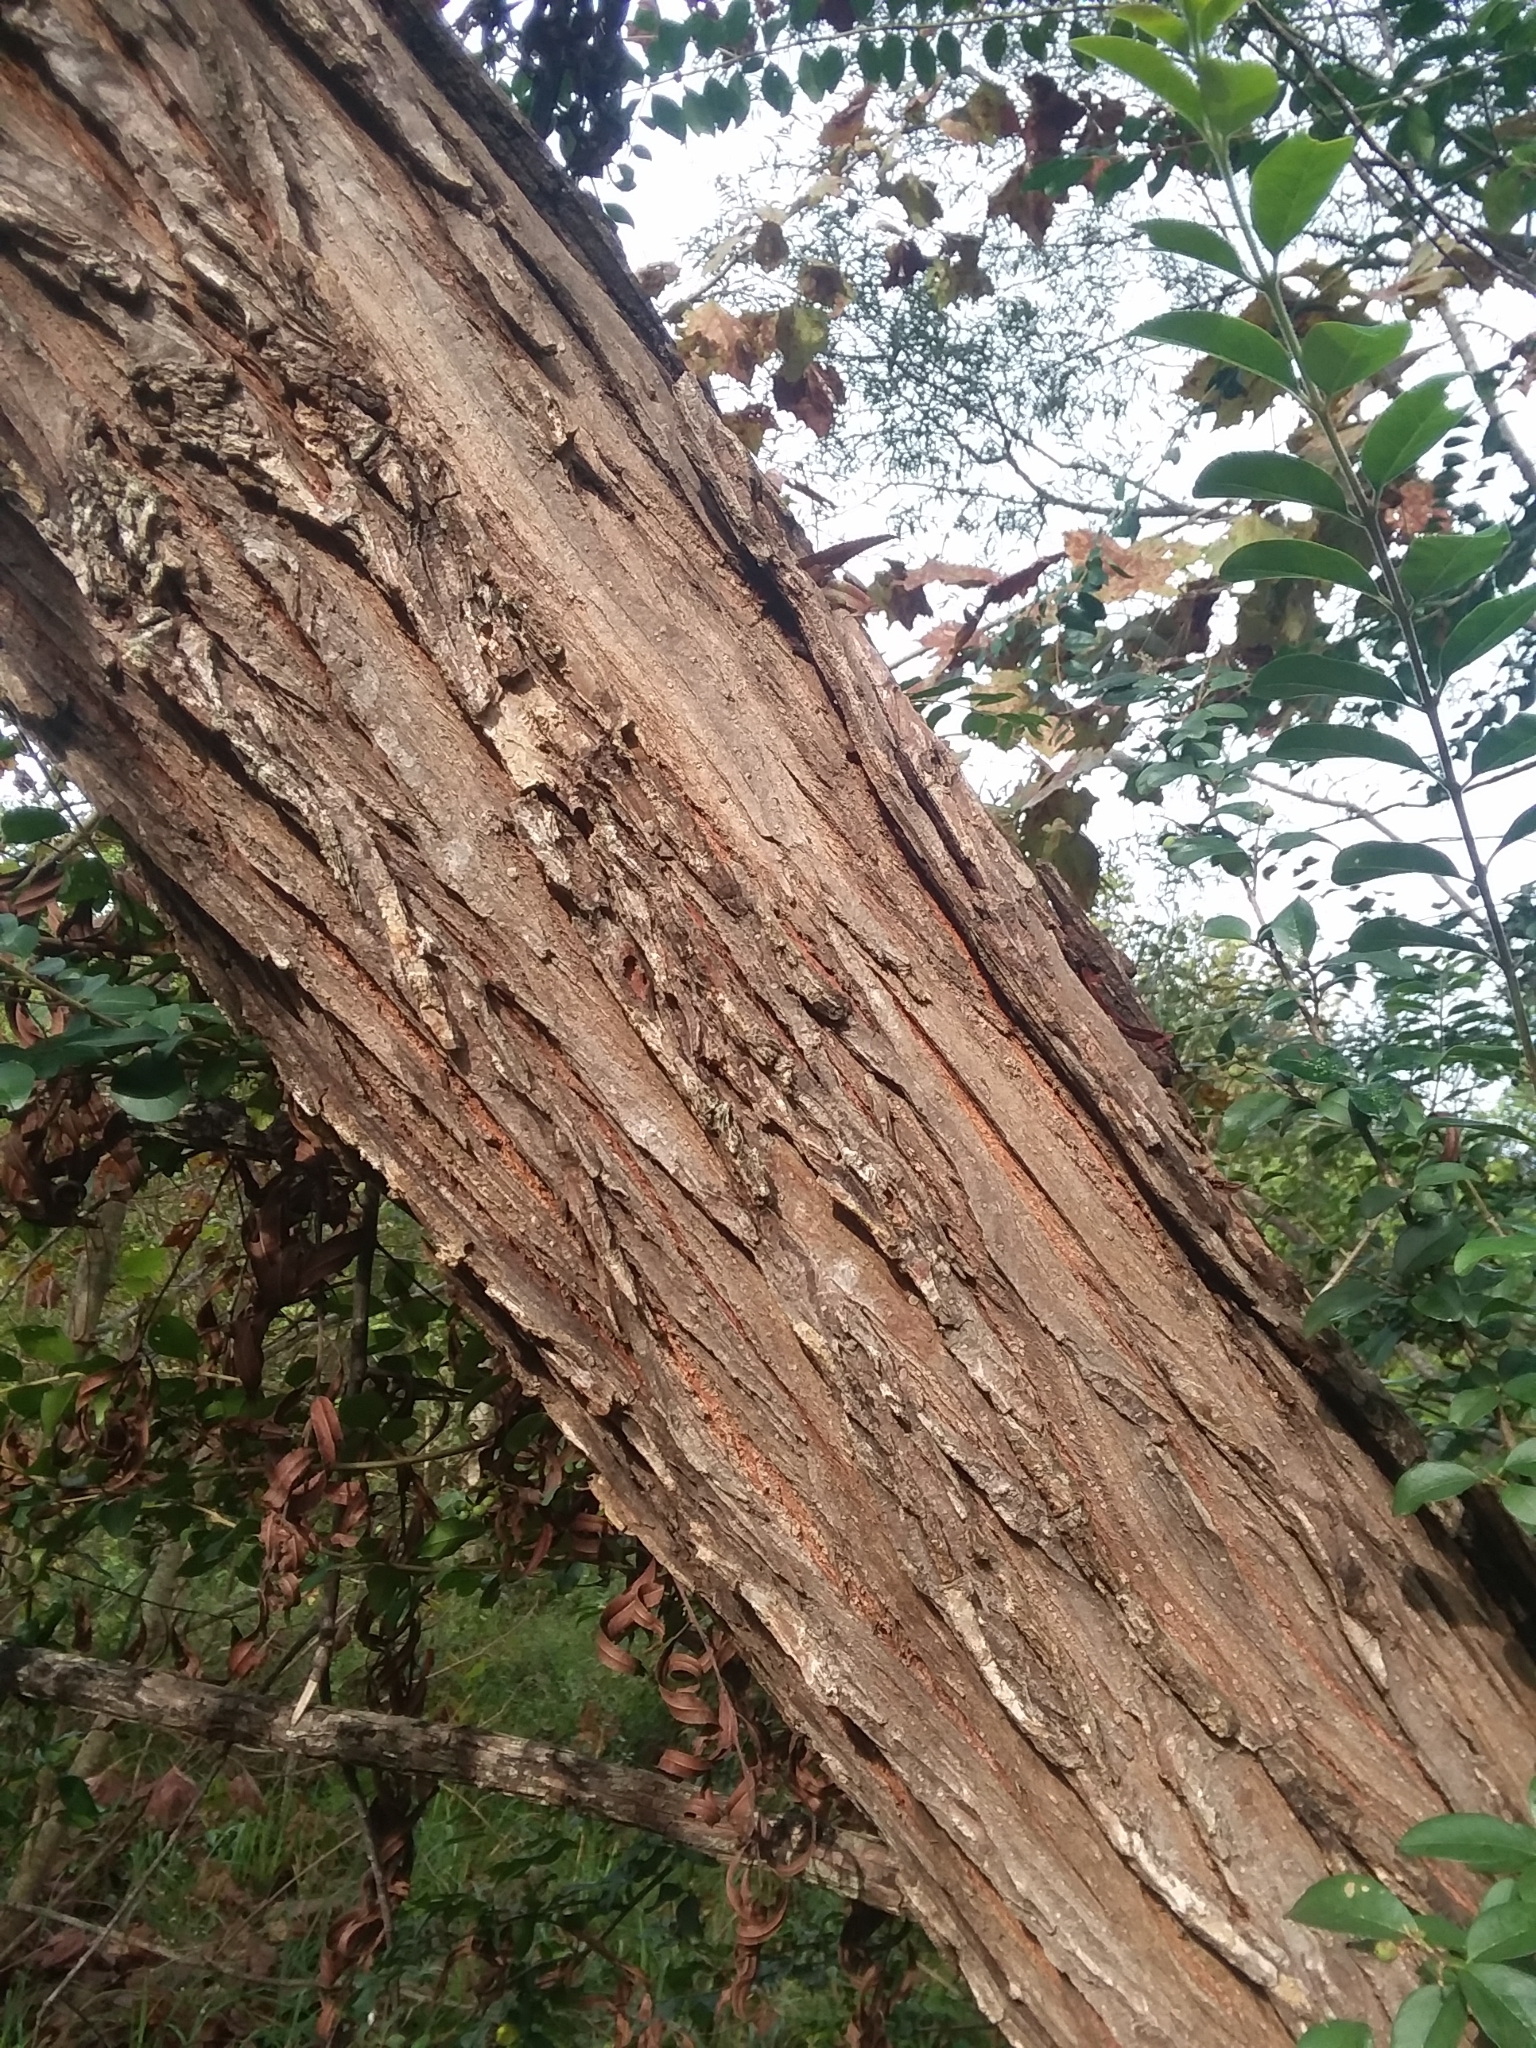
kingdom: Plantae
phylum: Tracheophyta
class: Magnoliopsida
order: Malpighiales
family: Salicaceae
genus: Salix
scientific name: Salix nigra
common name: Black willow
